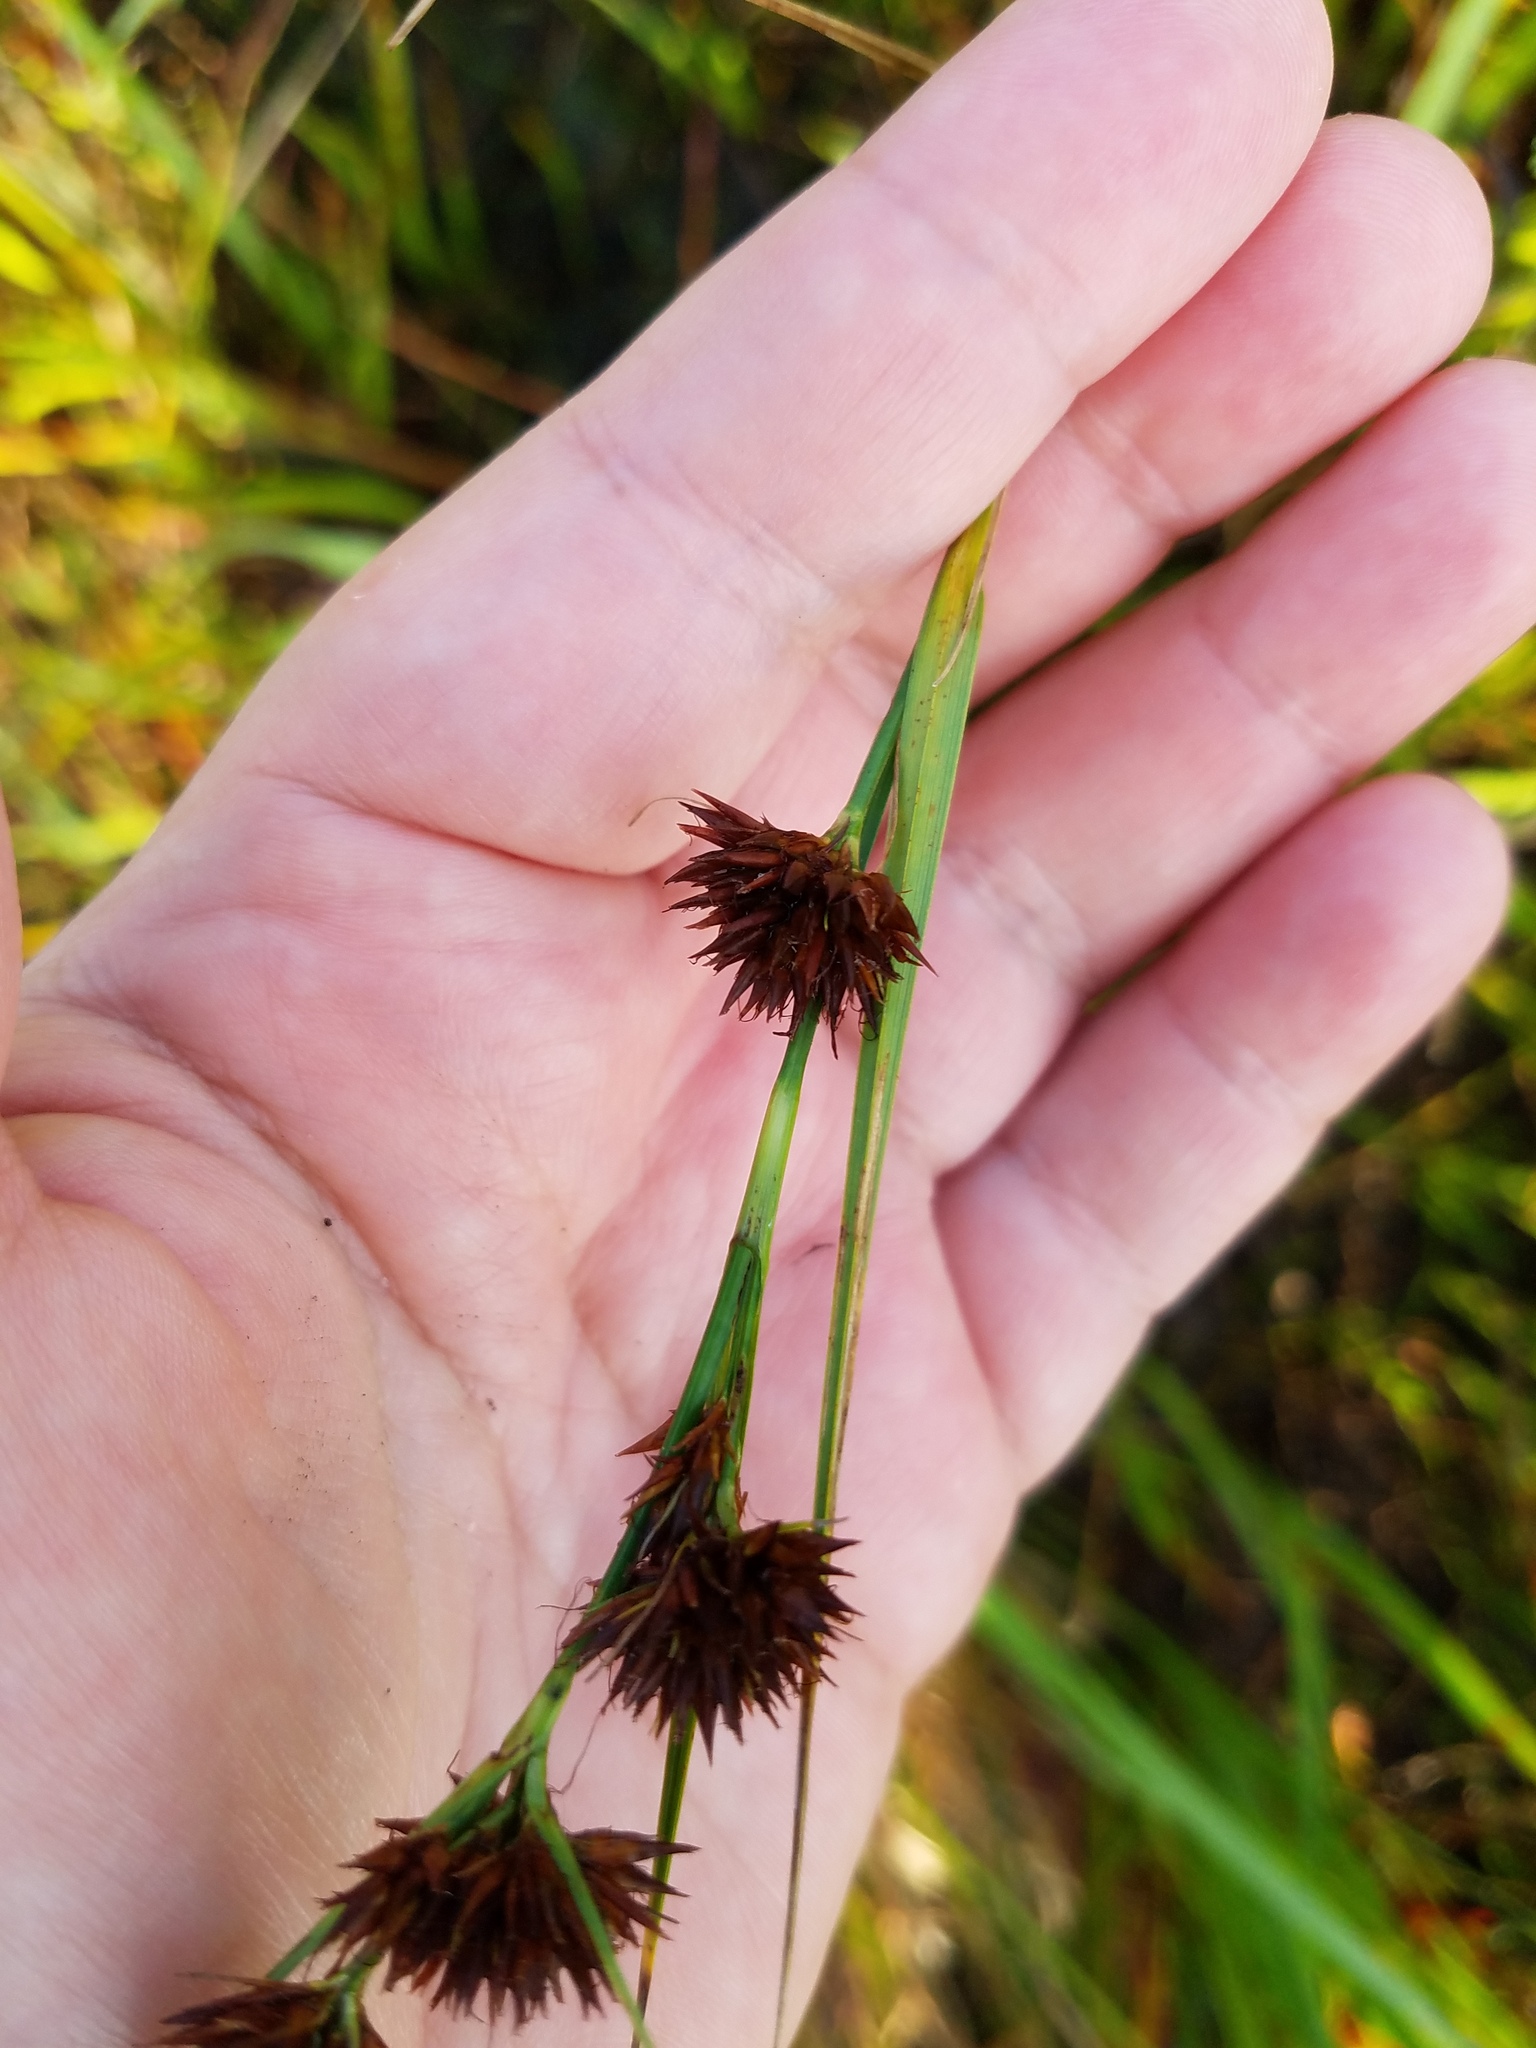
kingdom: Plantae
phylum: Tracheophyta
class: Liliopsida
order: Poales
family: Cyperaceae
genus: Rhynchospora
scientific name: Rhynchospora cephalantha
